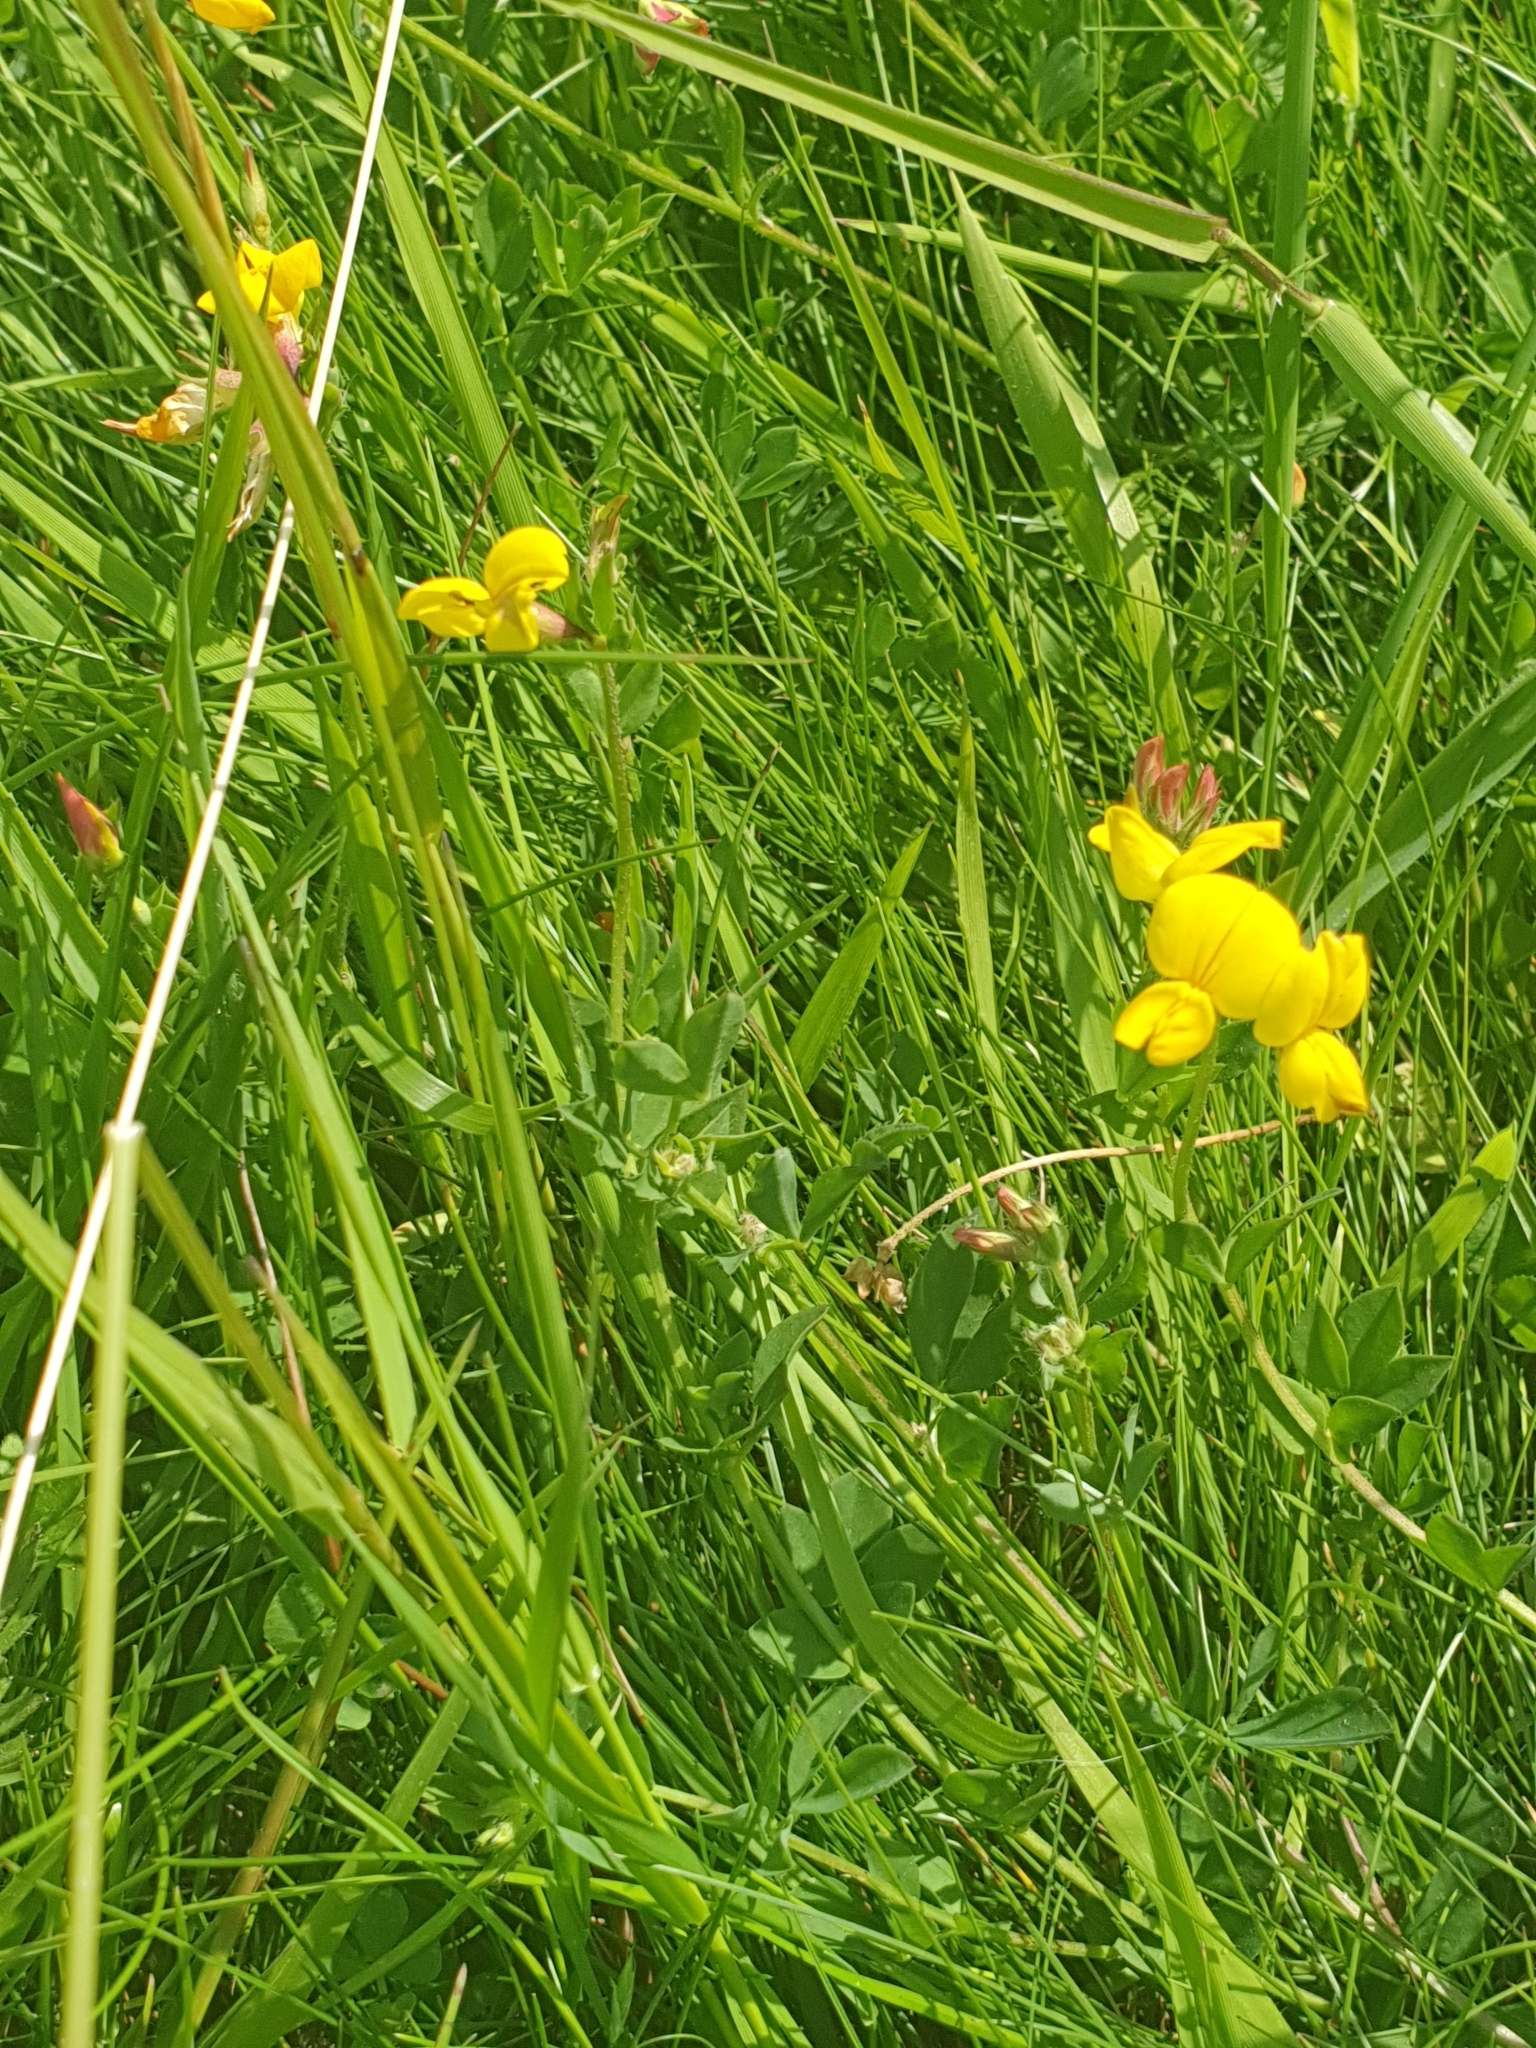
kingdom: Plantae
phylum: Tracheophyta
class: Magnoliopsida
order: Fabales
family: Fabaceae
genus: Lotus
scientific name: Lotus corniculatus
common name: Common bird's-foot-trefoil
